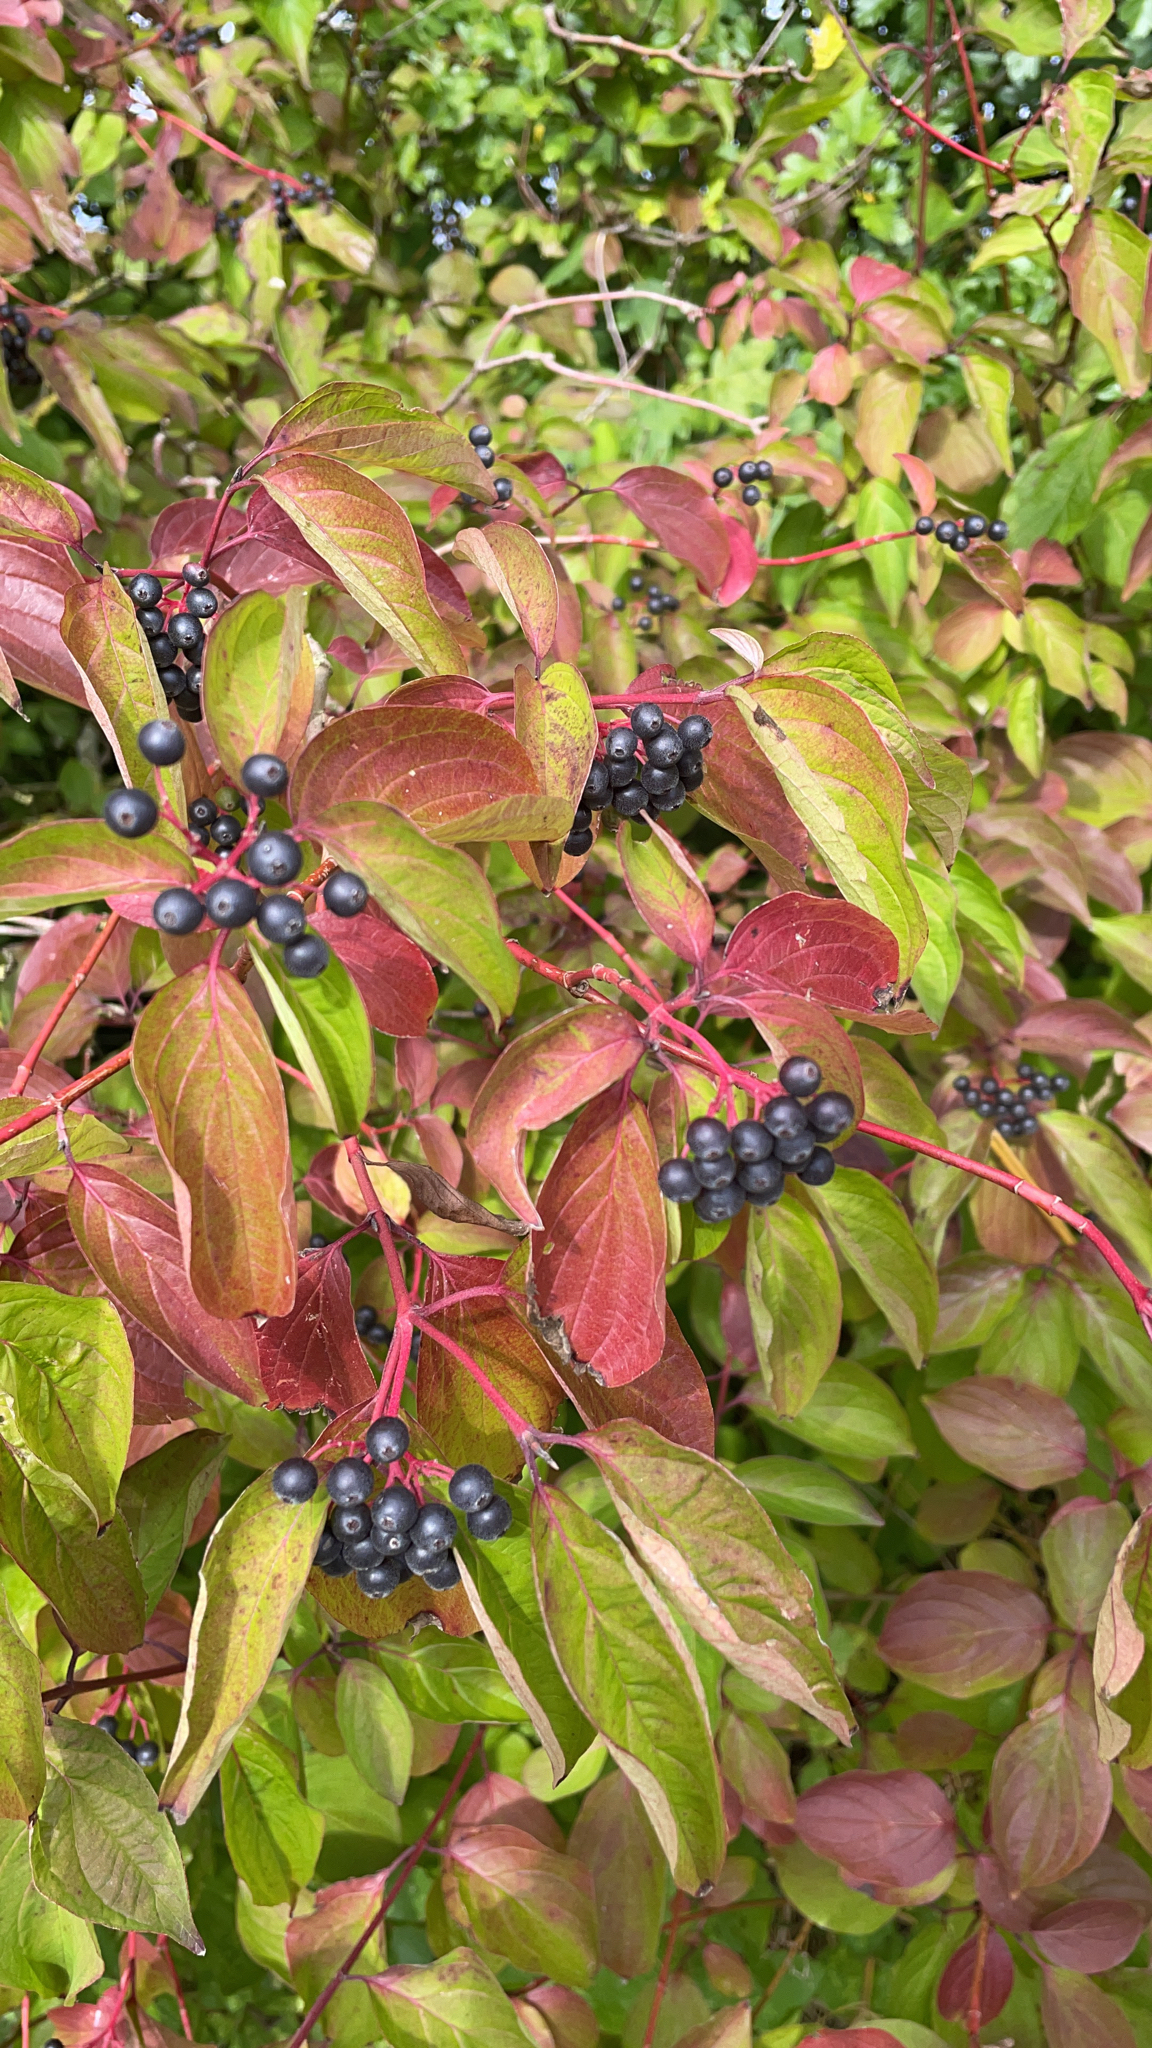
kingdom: Plantae
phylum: Tracheophyta
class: Magnoliopsida
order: Cornales
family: Cornaceae
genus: Cornus
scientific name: Cornus sanguinea
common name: Dogwood
